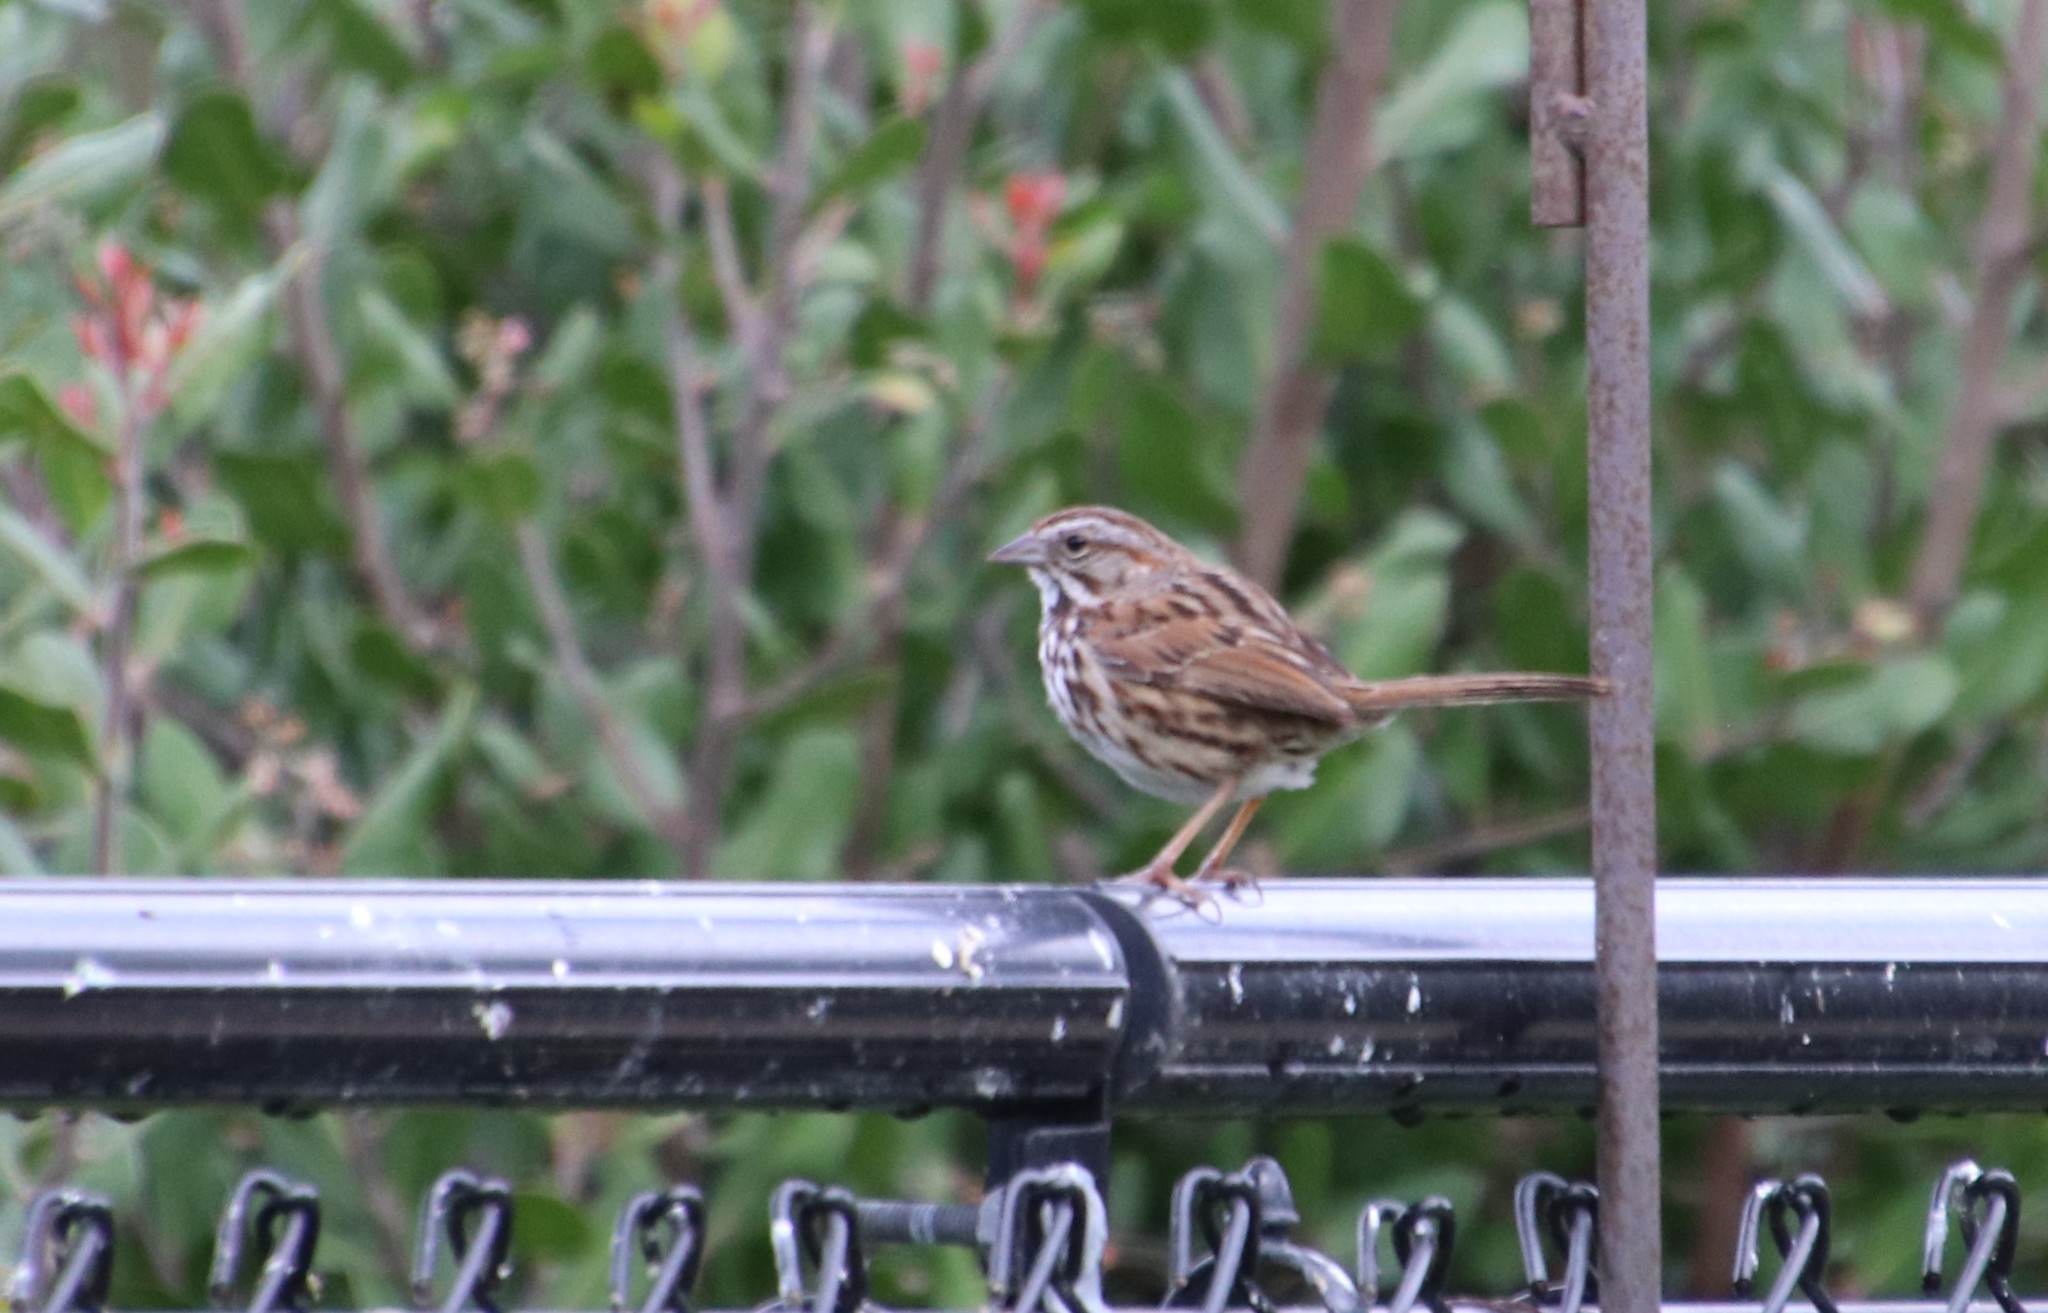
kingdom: Animalia
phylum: Chordata
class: Aves
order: Passeriformes
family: Passerellidae
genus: Melospiza
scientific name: Melospiza melodia
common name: Song sparrow
